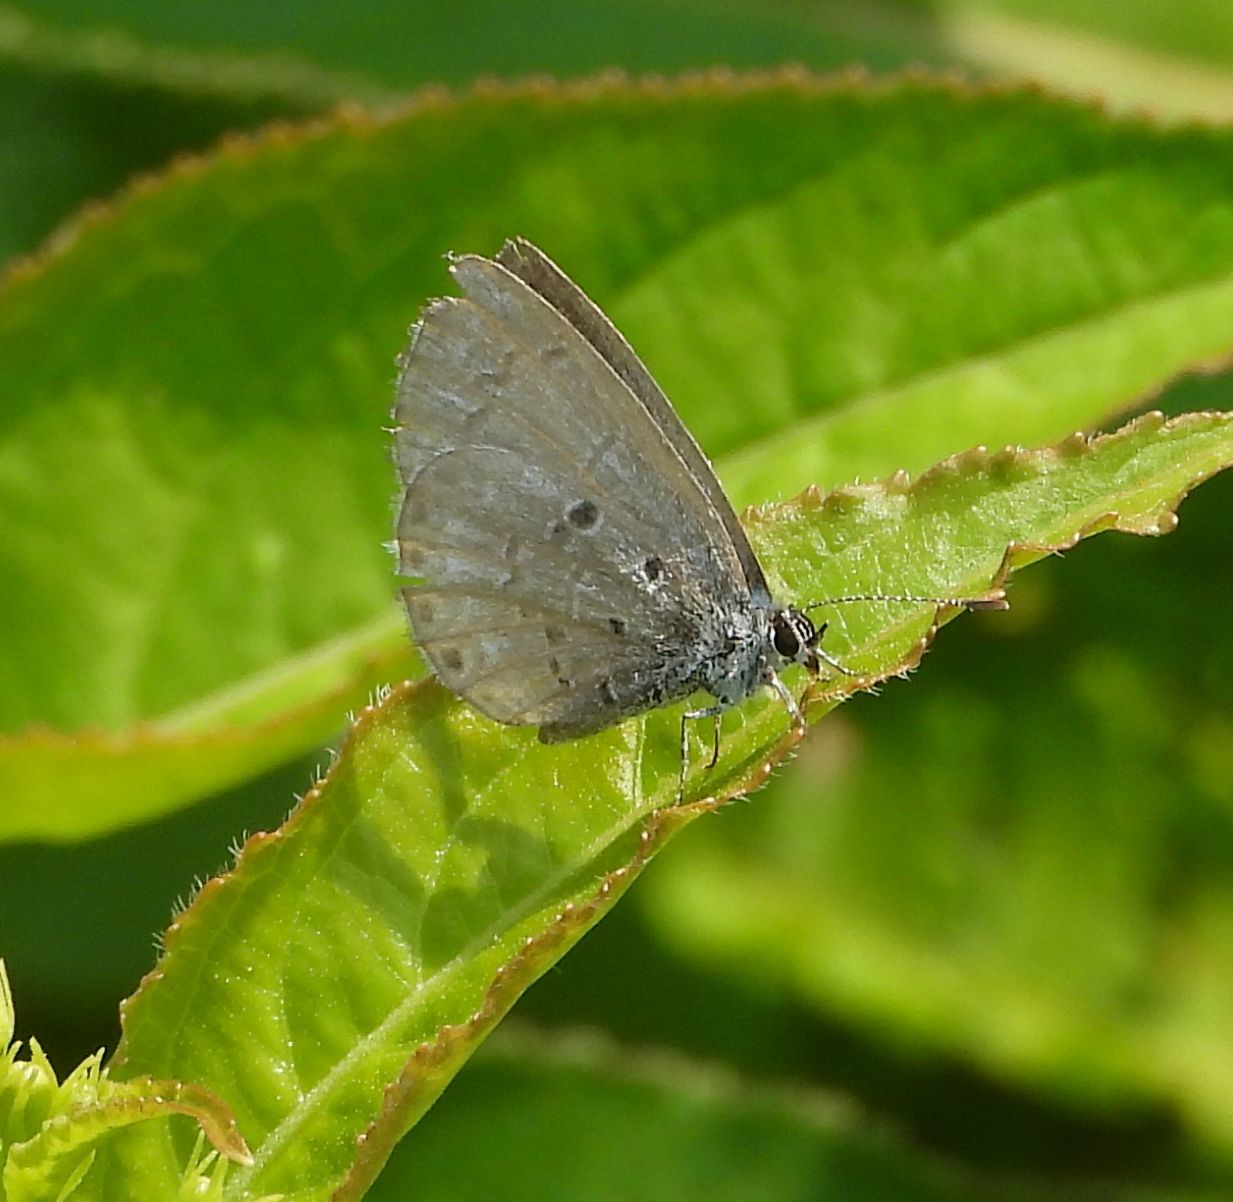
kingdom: Animalia
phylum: Arthropoda
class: Insecta
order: Lepidoptera
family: Lycaenidae
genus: Celastrina
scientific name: Celastrina lucia
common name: Lucia azure
